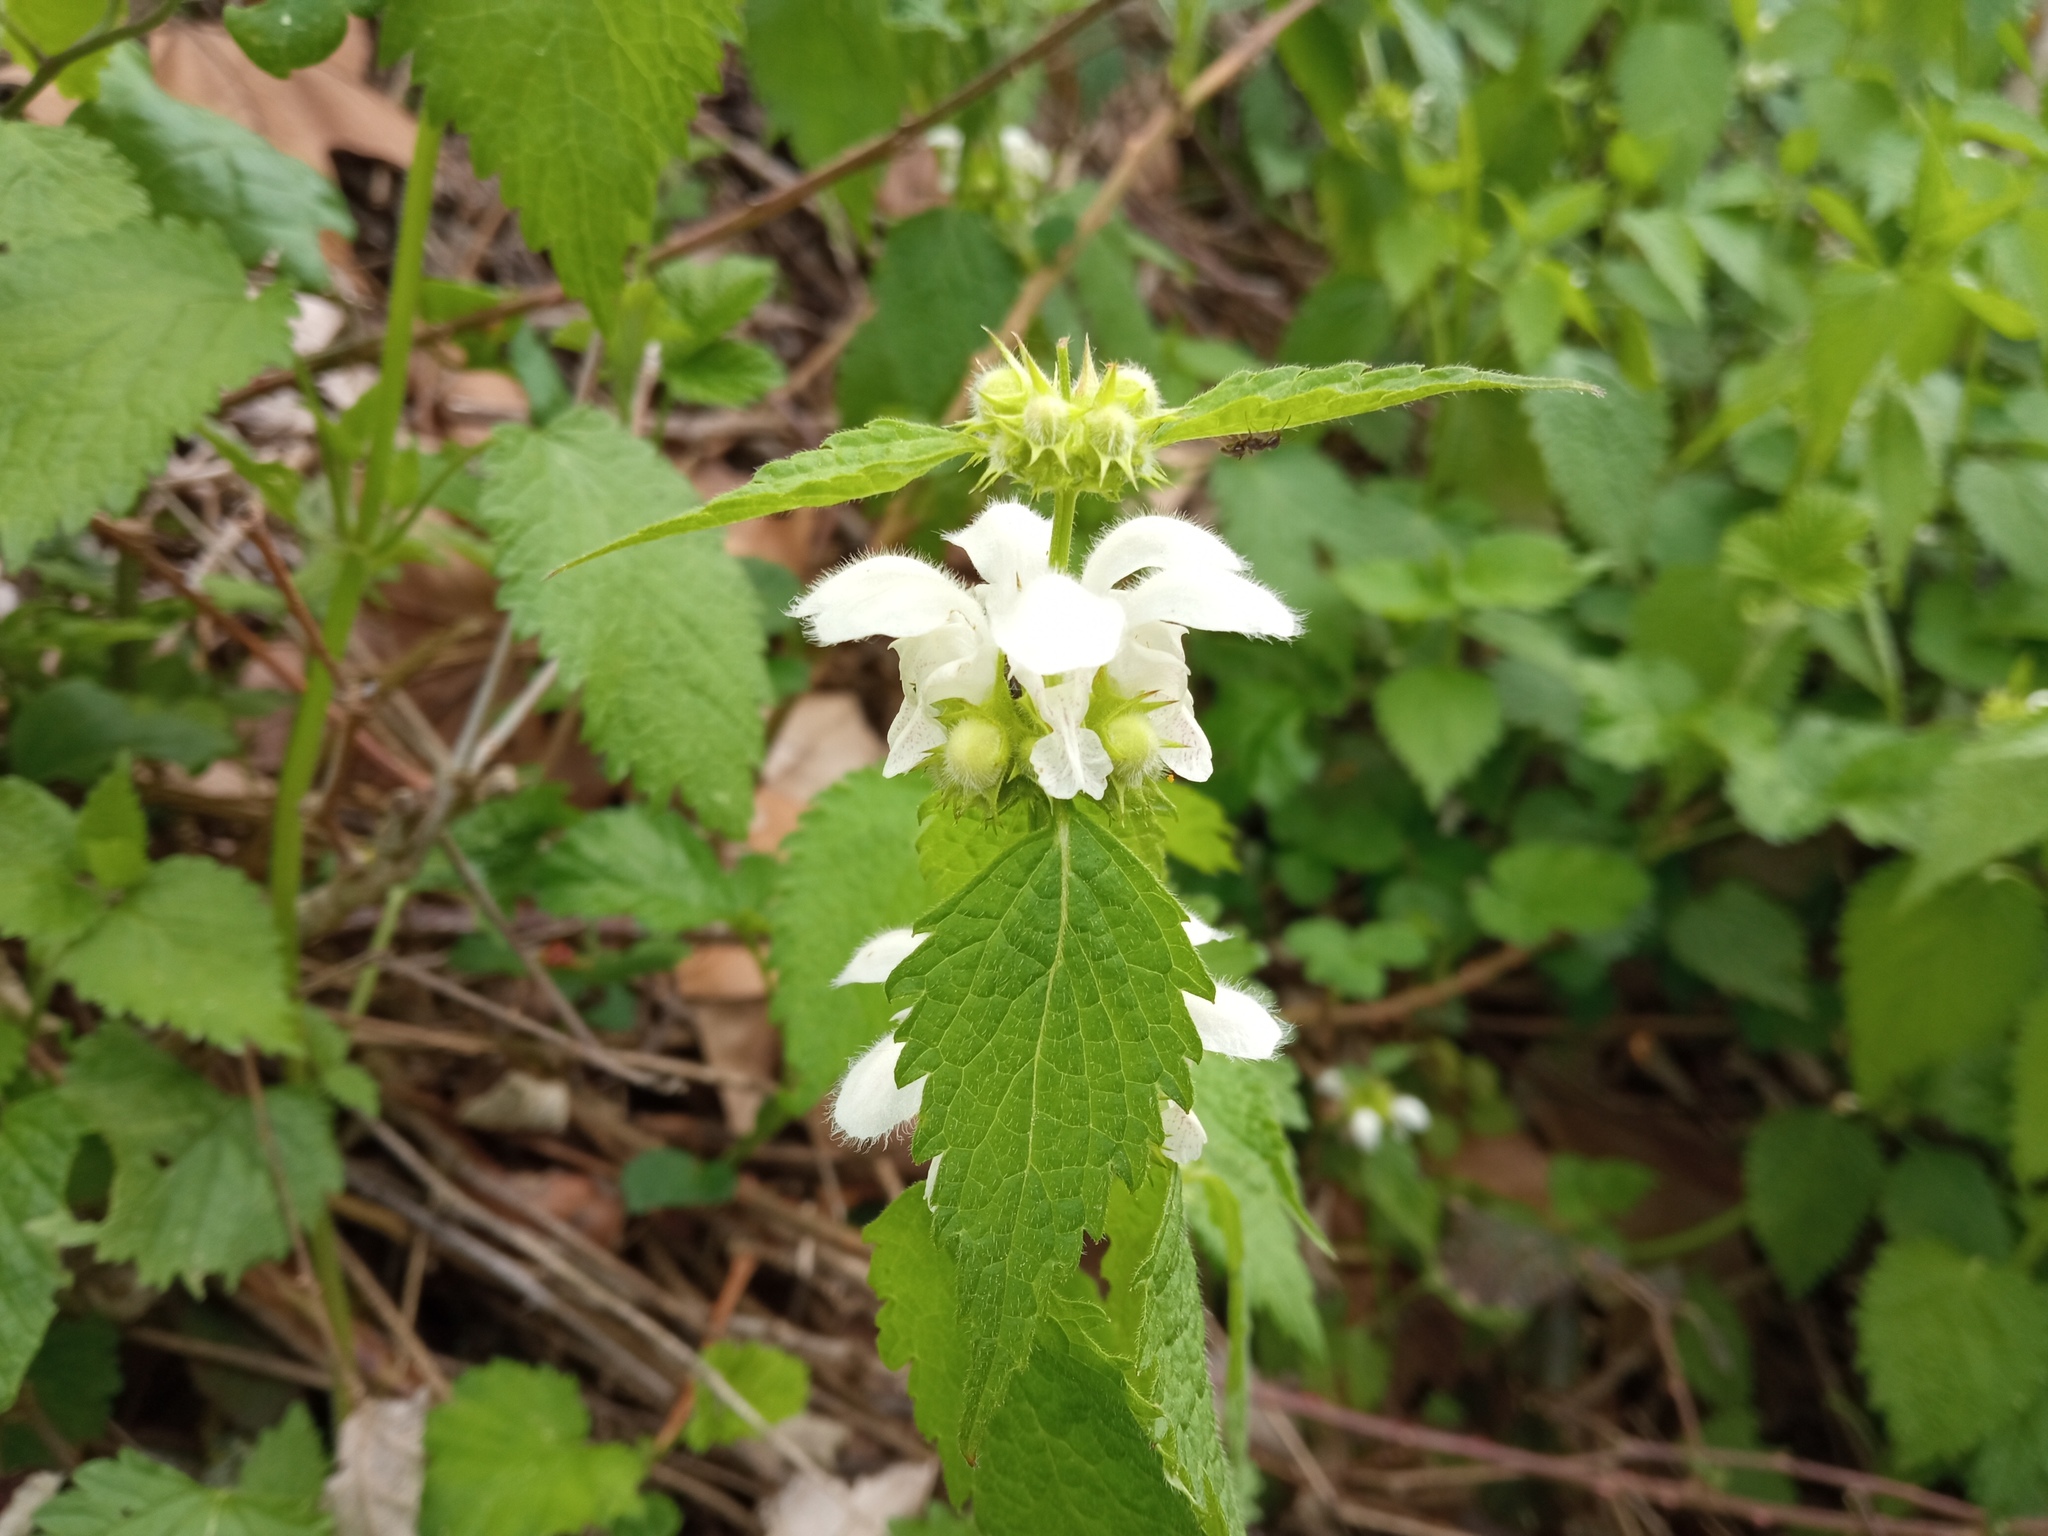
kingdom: Plantae
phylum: Tracheophyta
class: Magnoliopsida
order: Lamiales
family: Lamiaceae
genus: Lamium
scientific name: Lamium flexuosum
